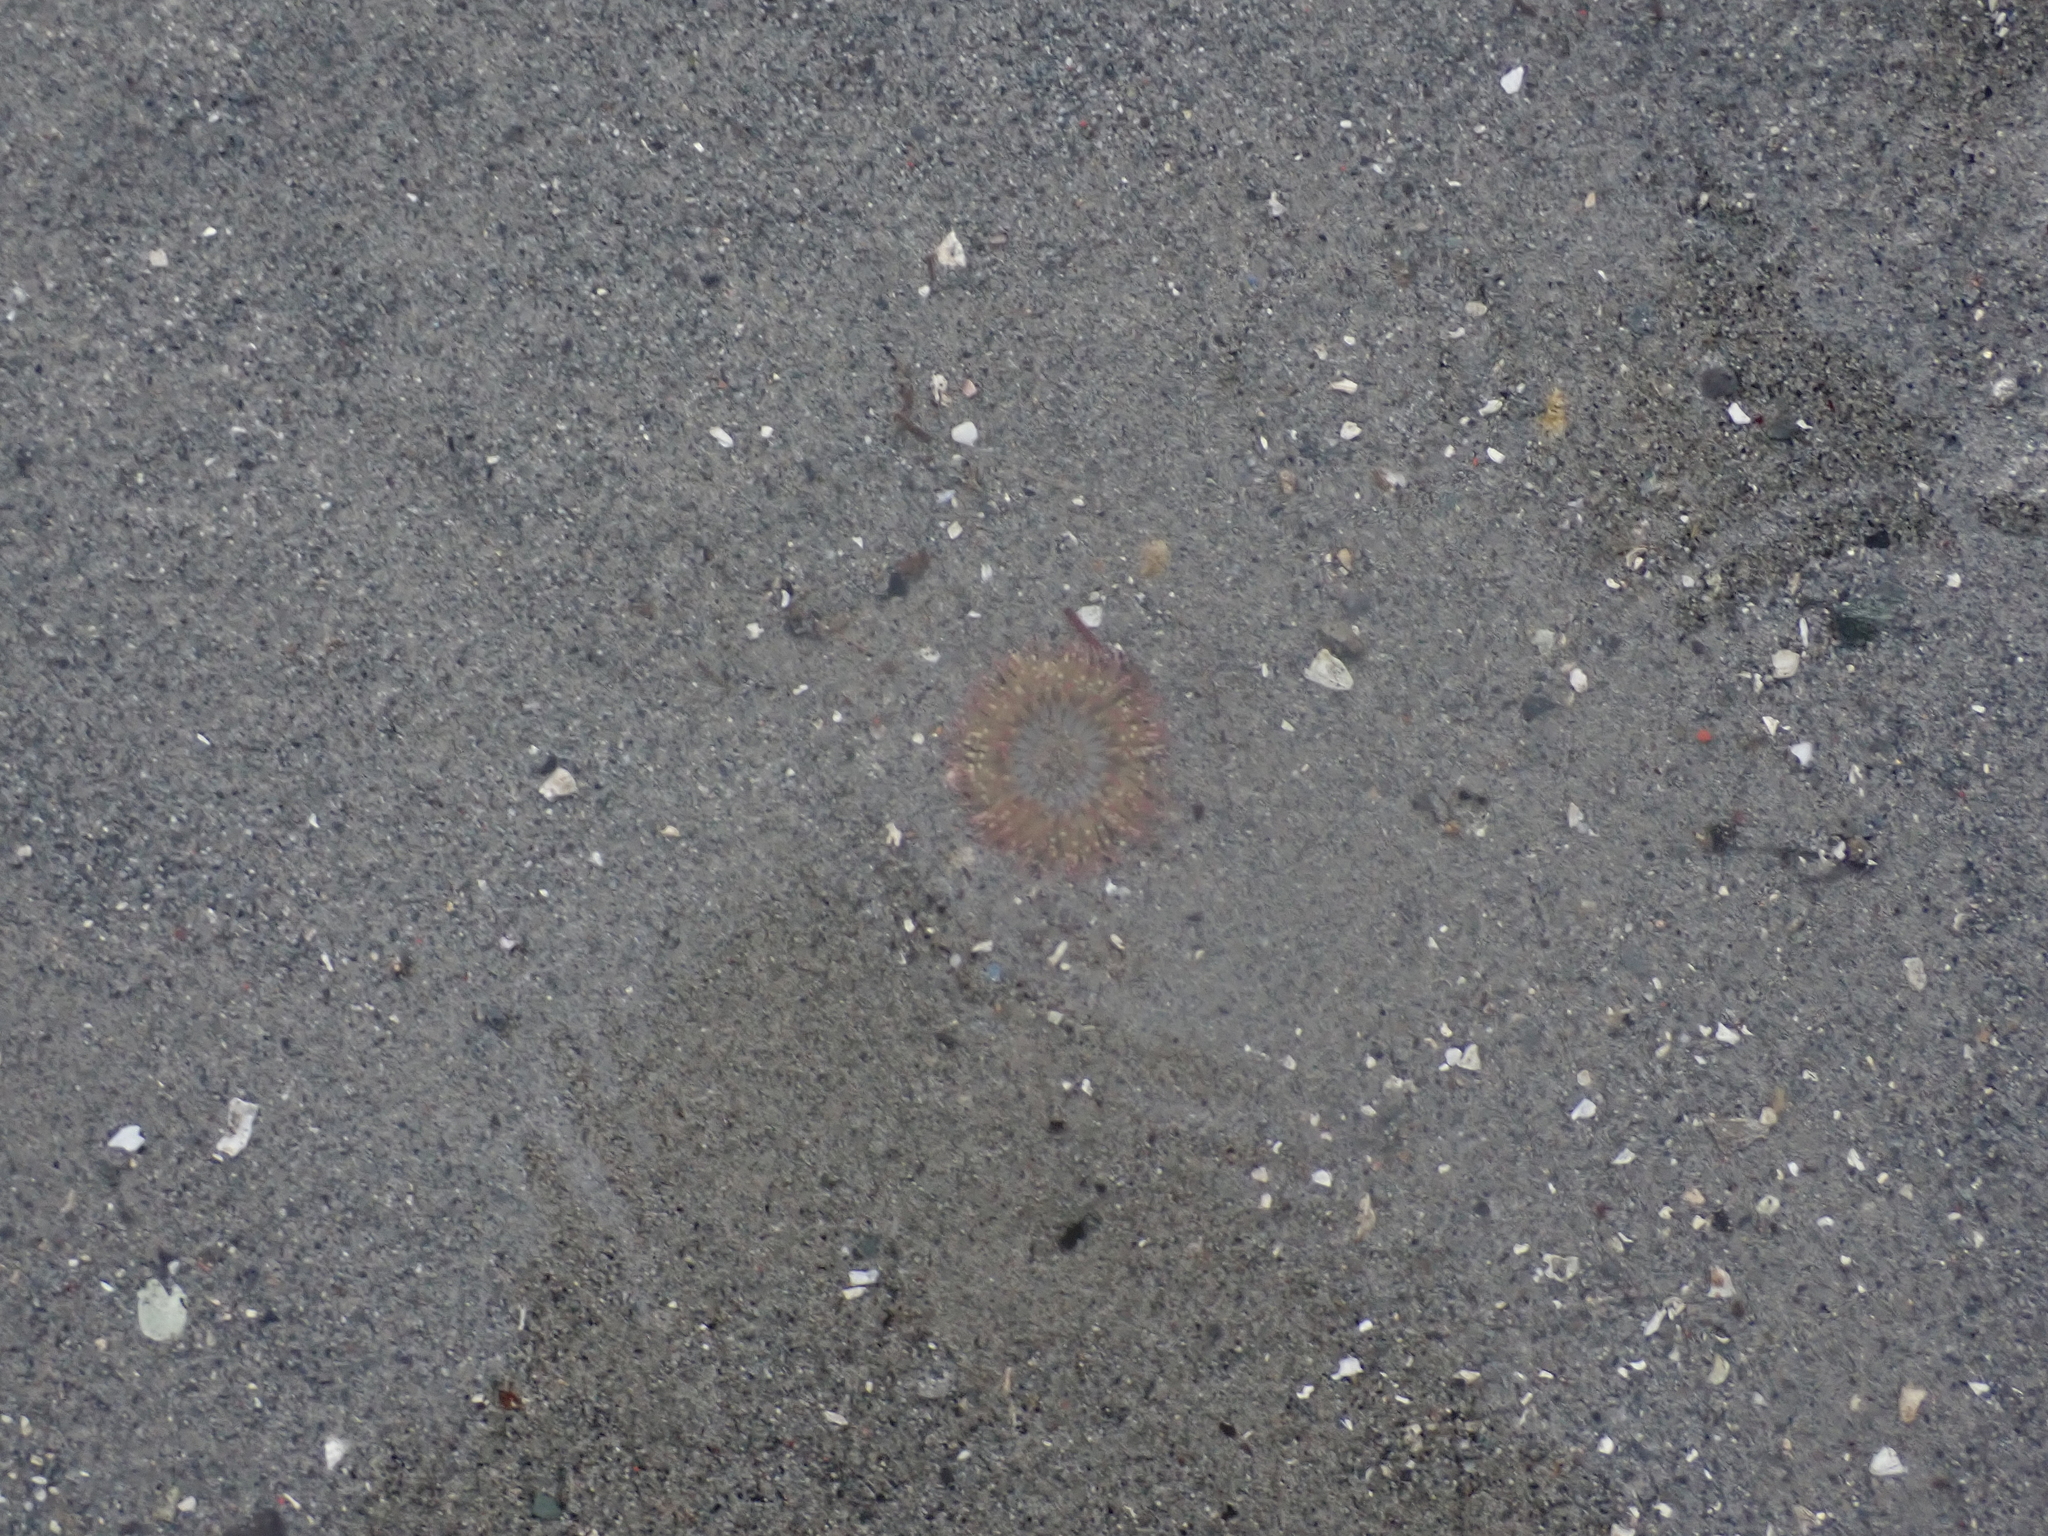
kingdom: Animalia
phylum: Cnidaria
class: Anthozoa
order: Actiniaria
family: Actiniidae
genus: Anthopleura
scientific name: Anthopleura elegantissima
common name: Clonal anemone
